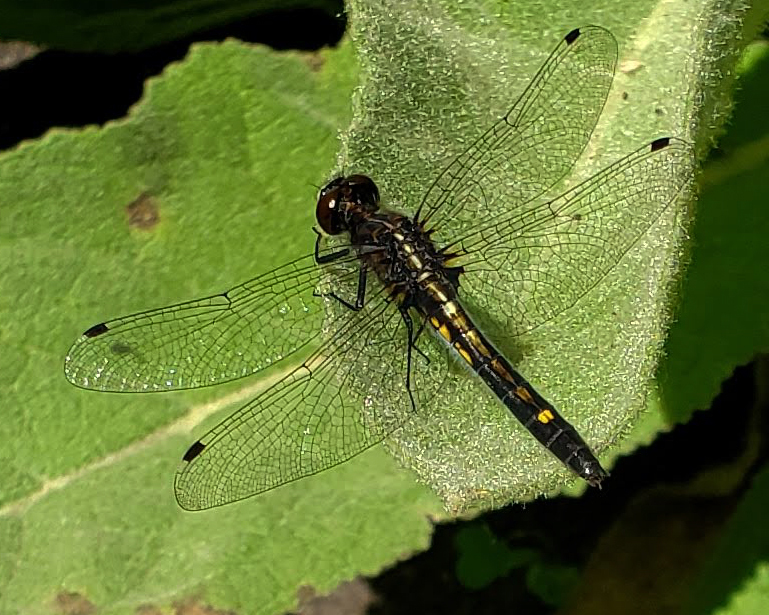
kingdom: Animalia
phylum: Arthropoda
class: Insecta
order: Odonata
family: Libellulidae
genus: Leucorrhinia
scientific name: Leucorrhinia intacta
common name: Dot-tailed whiteface
